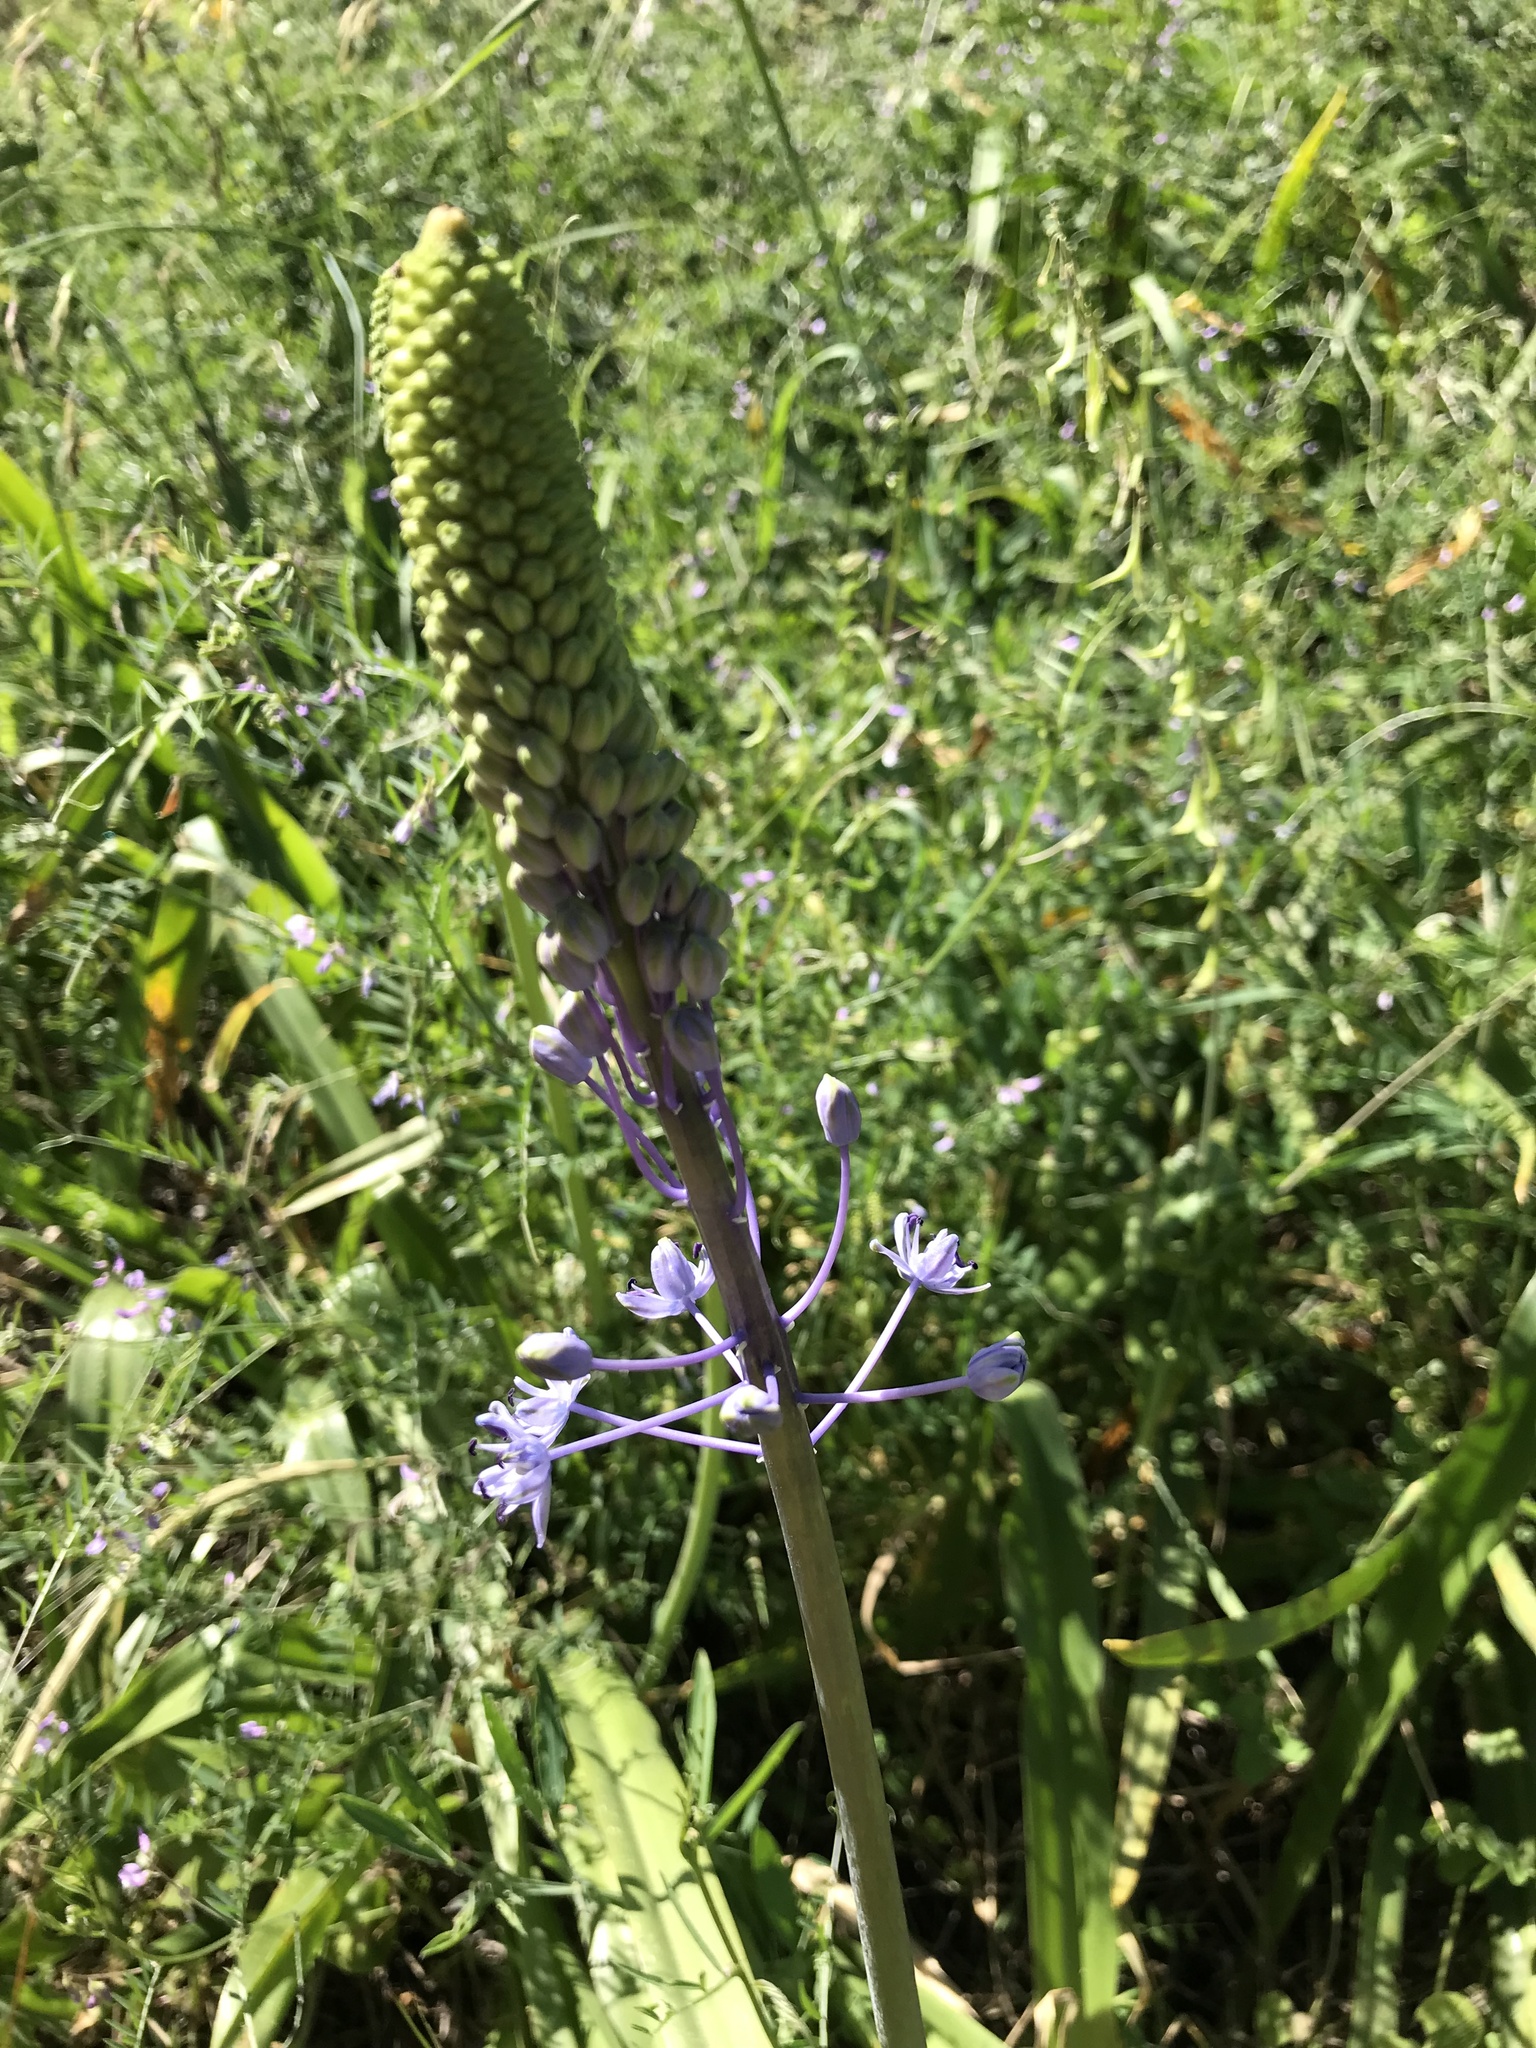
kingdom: Plantae
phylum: Tracheophyta
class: Liliopsida
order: Asparagales
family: Asparagaceae
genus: Scilla
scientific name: Scilla hyacinthoides
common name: Scilla
